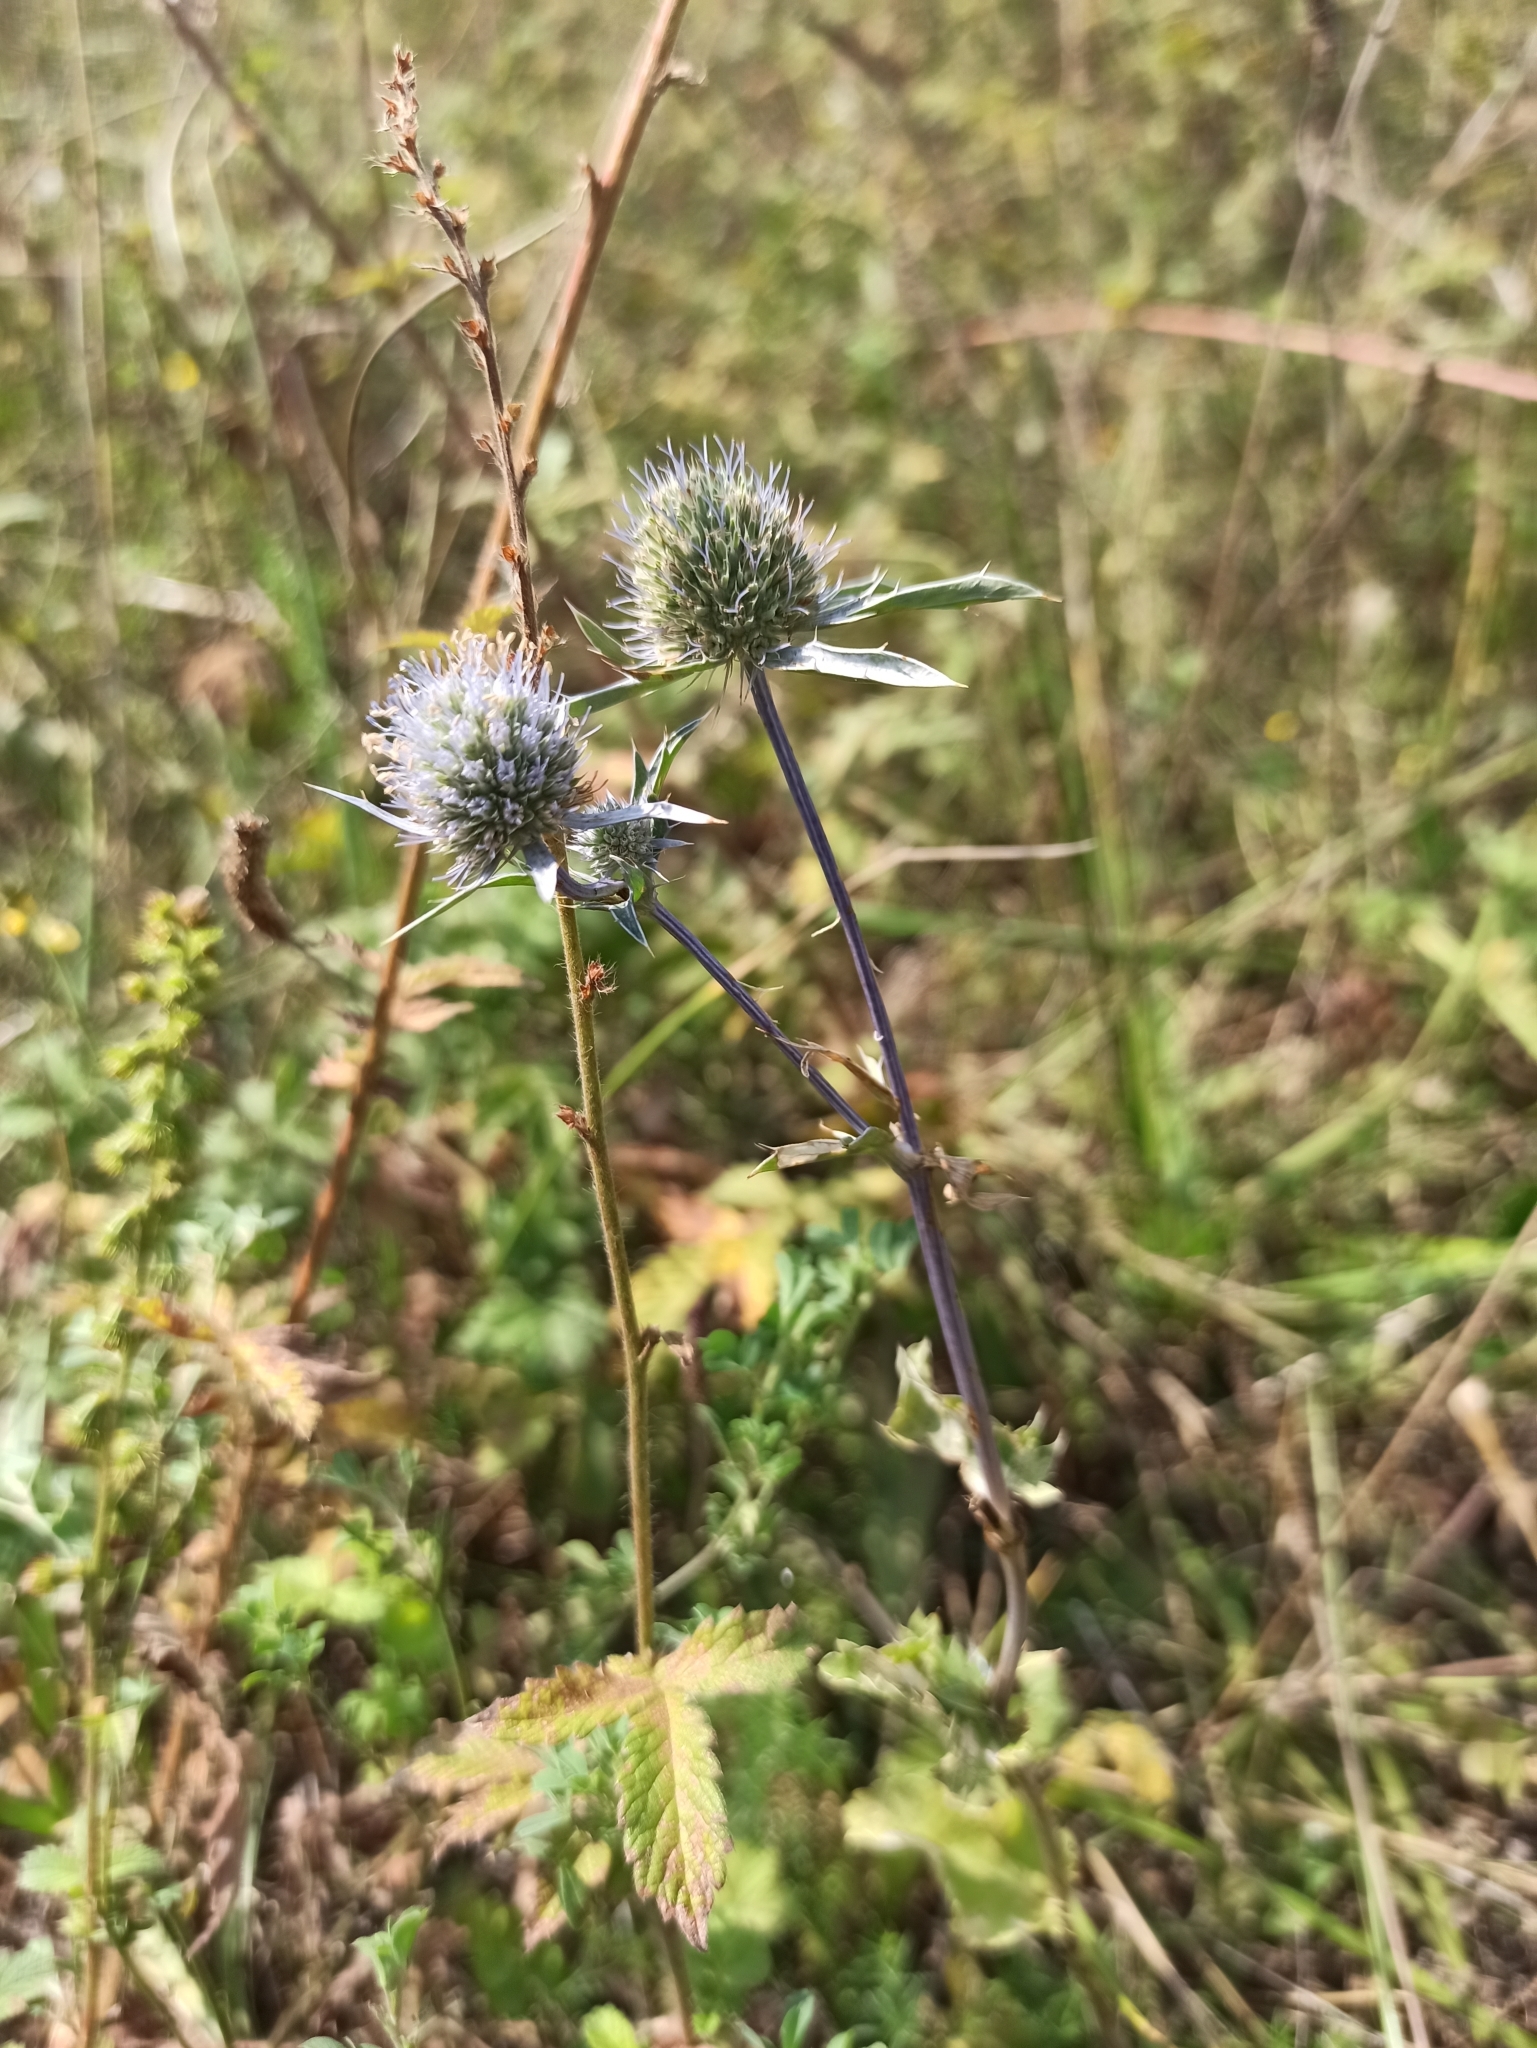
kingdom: Plantae
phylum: Tracheophyta
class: Magnoliopsida
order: Apiales
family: Apiaceae
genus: Eryngium
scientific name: Eryngium planum
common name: Blue eryngo
